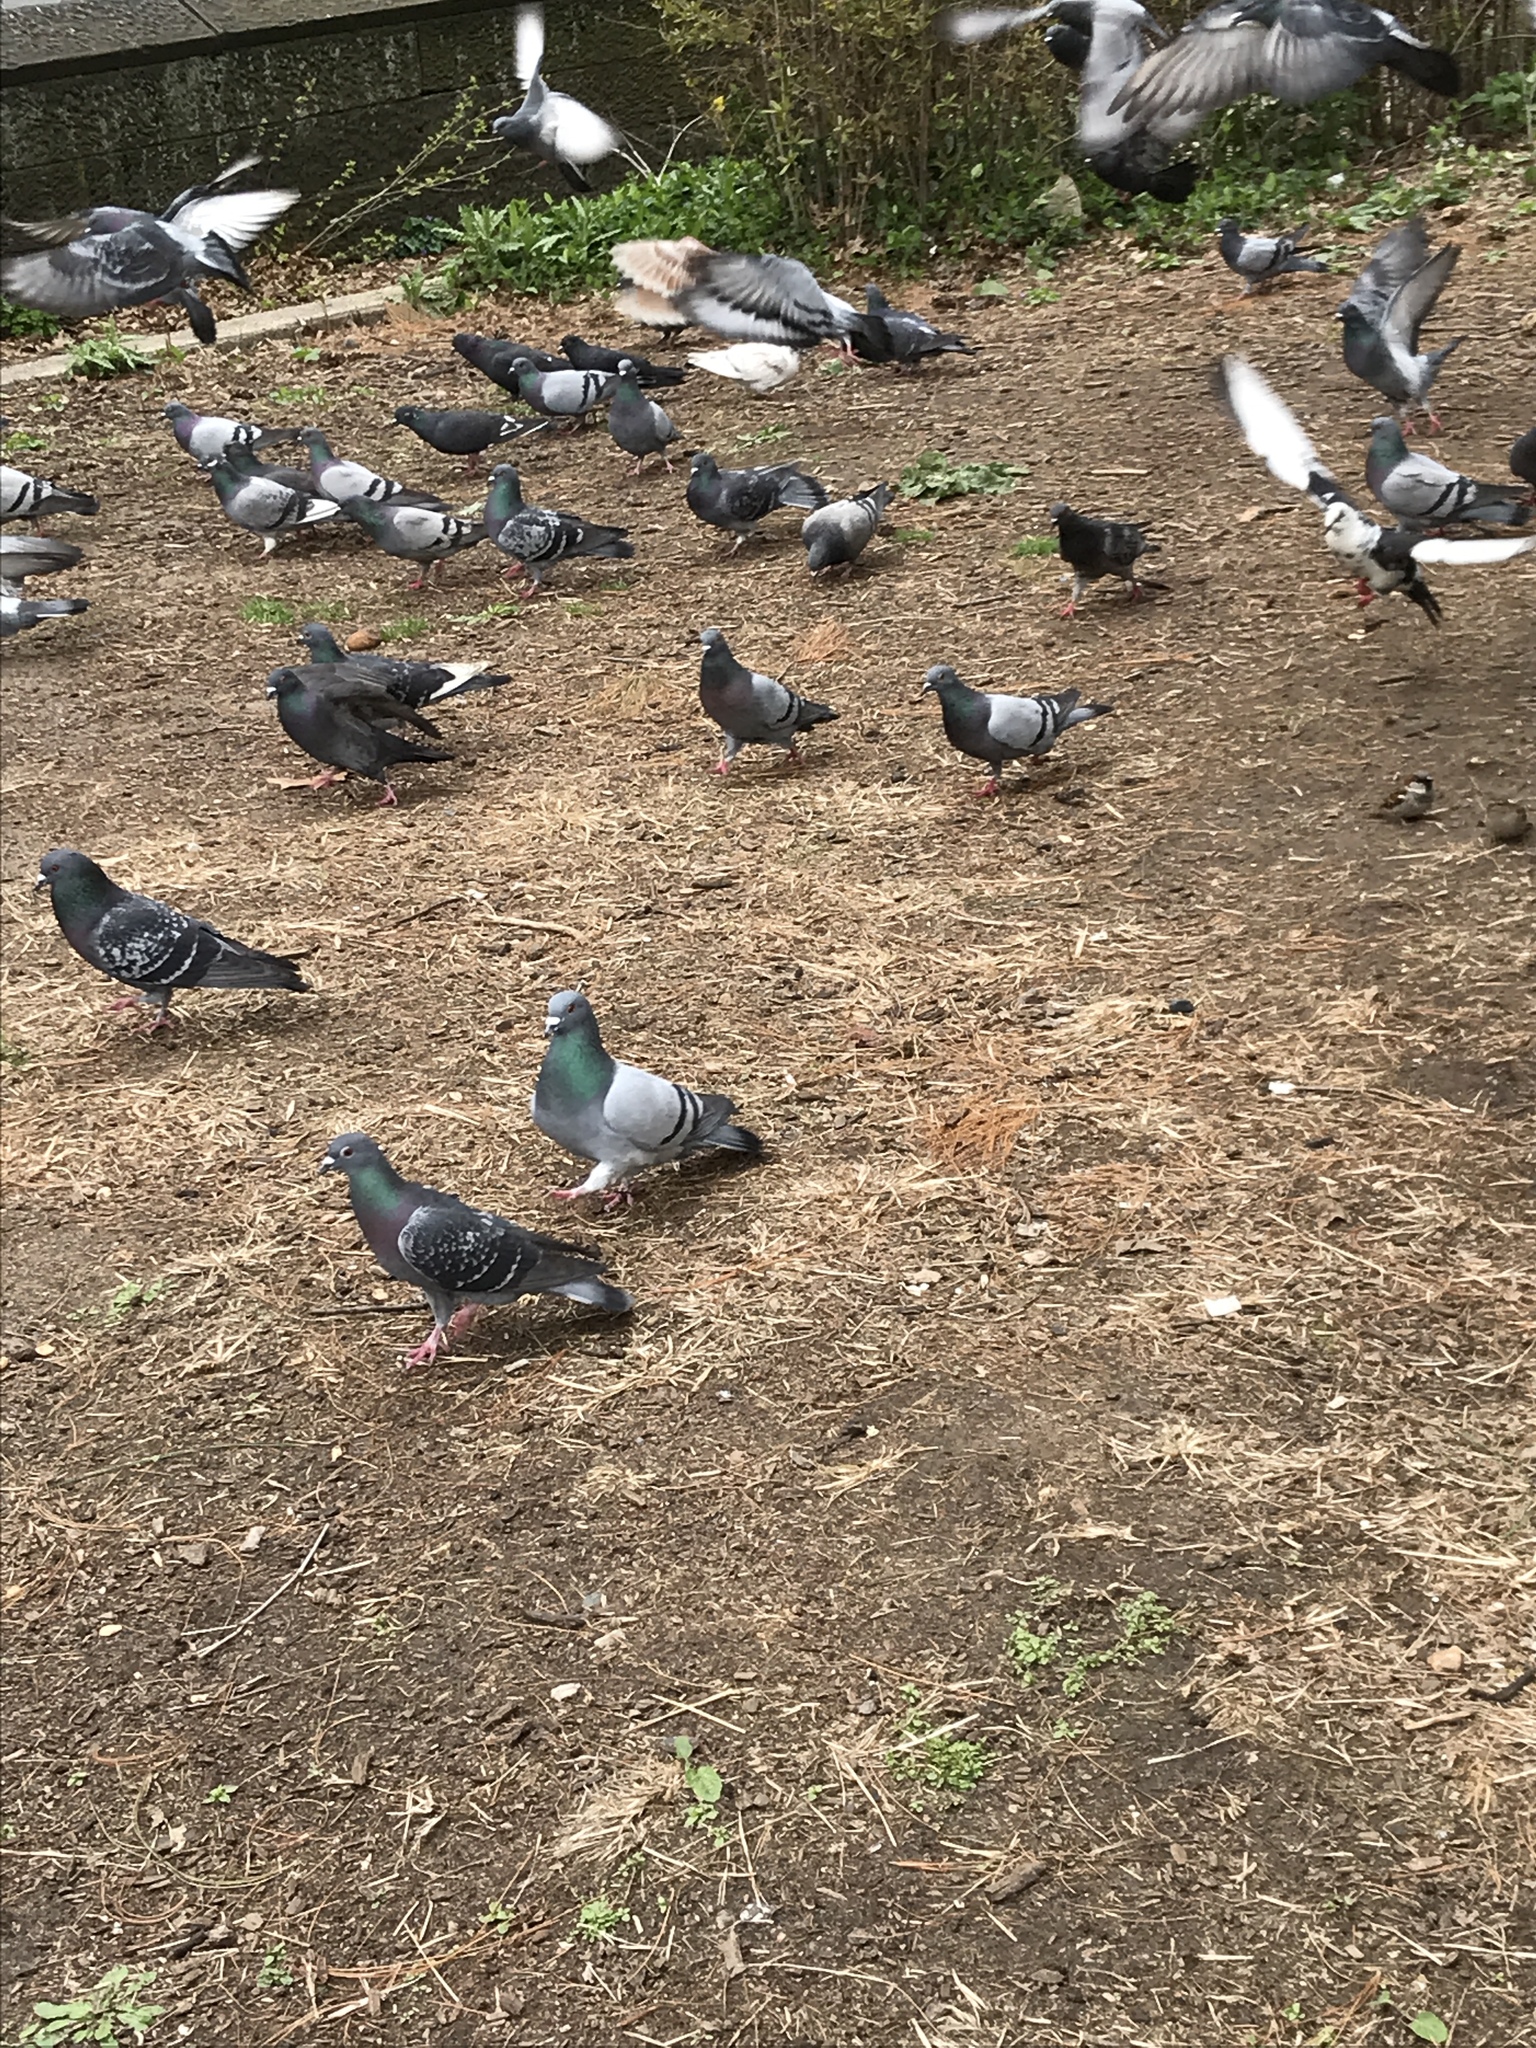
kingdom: Animalia
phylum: Chordata
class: Aves
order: Columbiformes
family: Columbidae
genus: Columba
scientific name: Columba livia
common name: Rock pigeon
